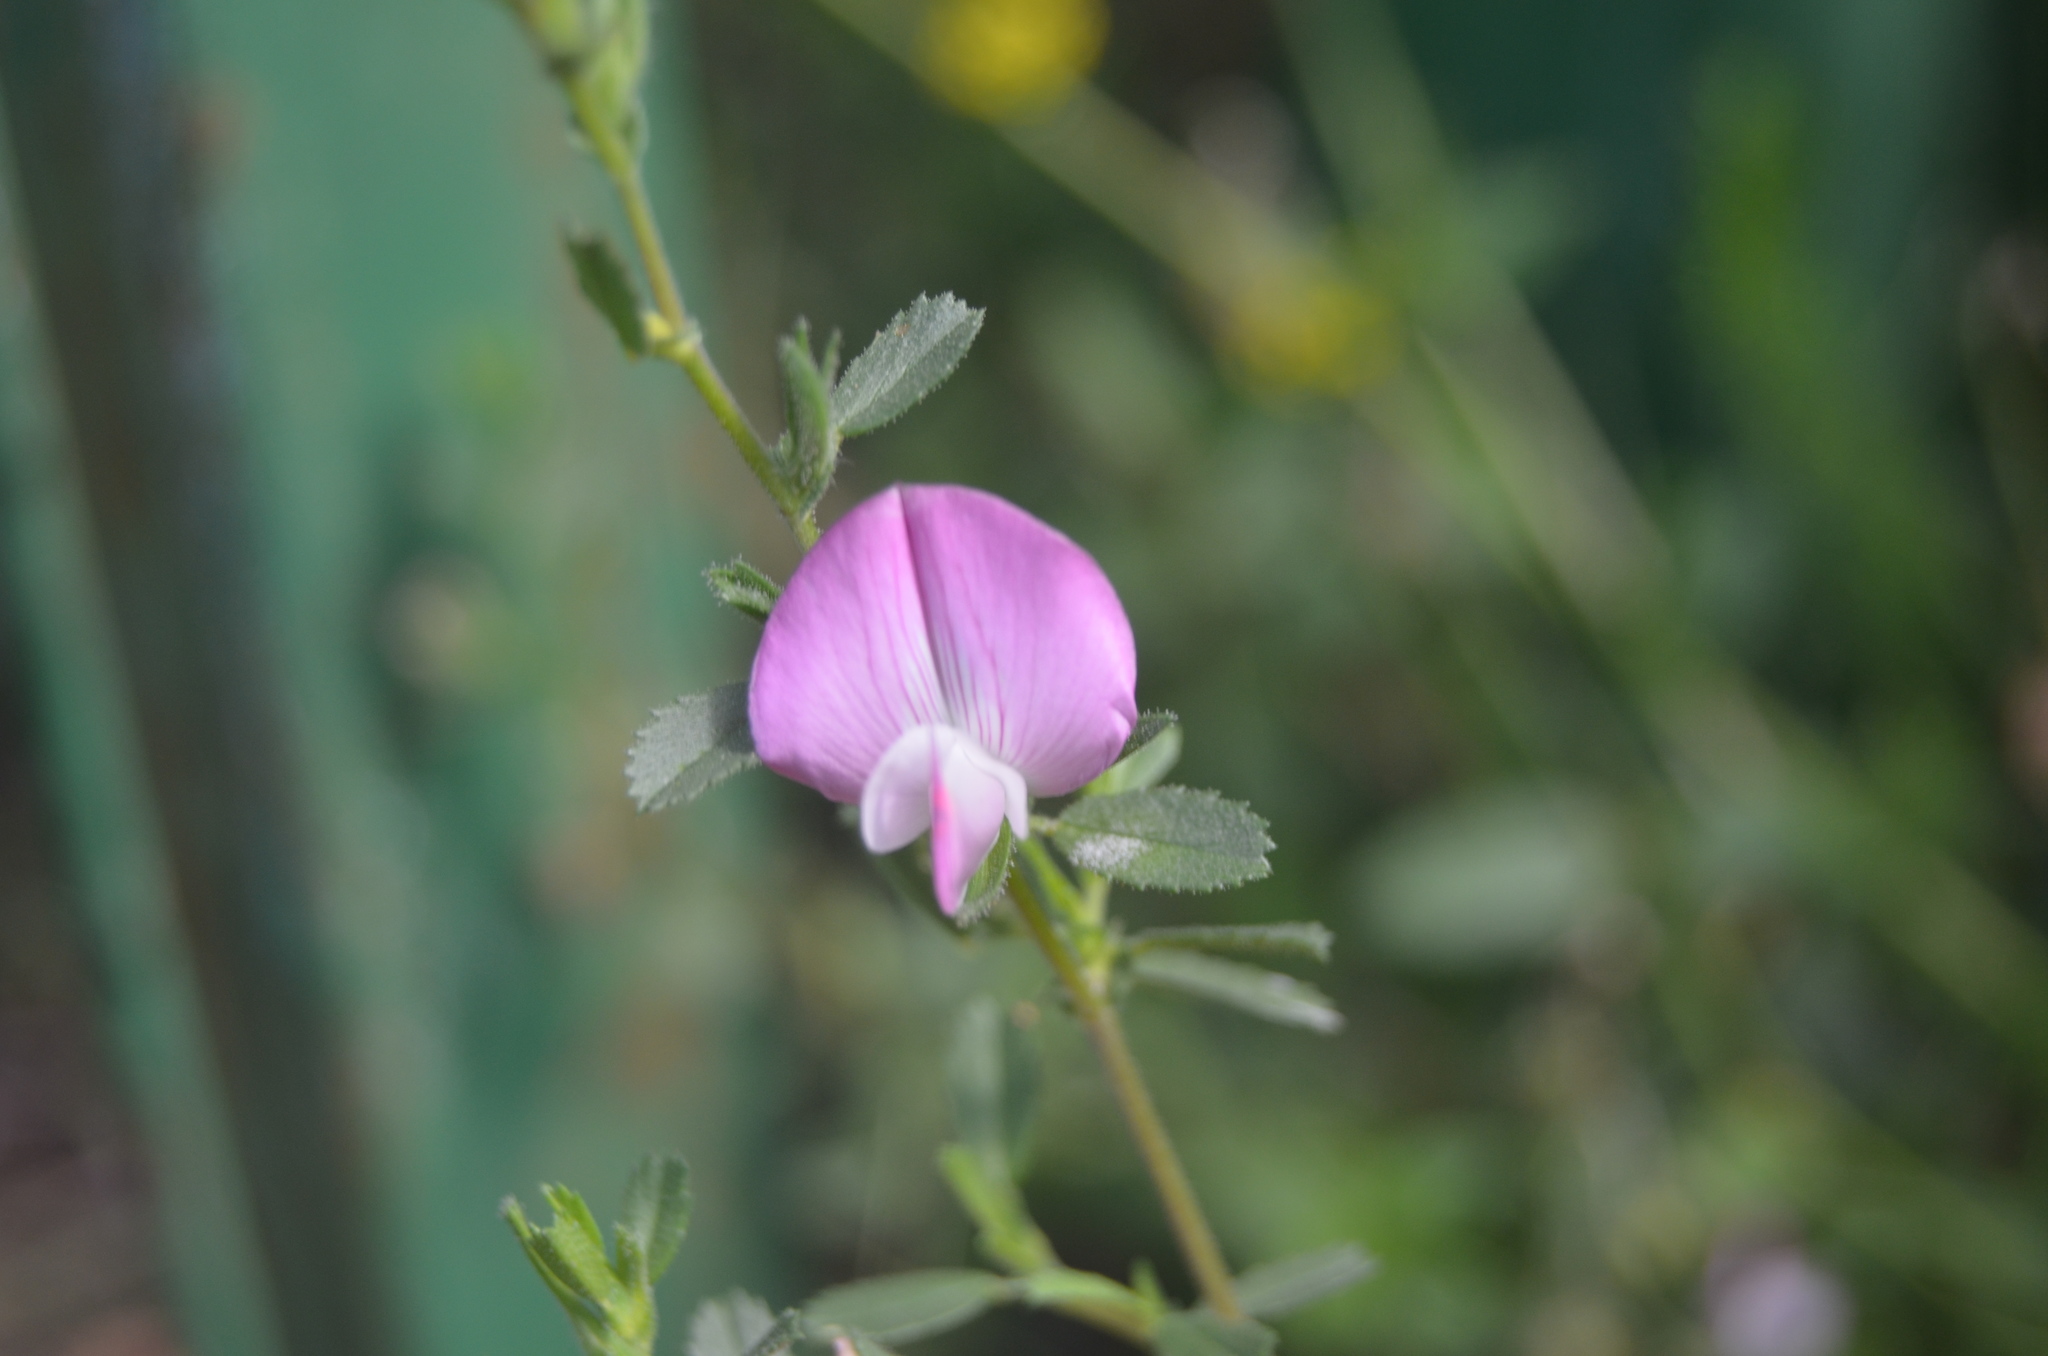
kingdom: Plantae
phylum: Tracheophyta
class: Magnoliopsida
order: Fabales
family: Fabaceae
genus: Ononis
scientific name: Ononis spinosa
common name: Spiny restharrow
